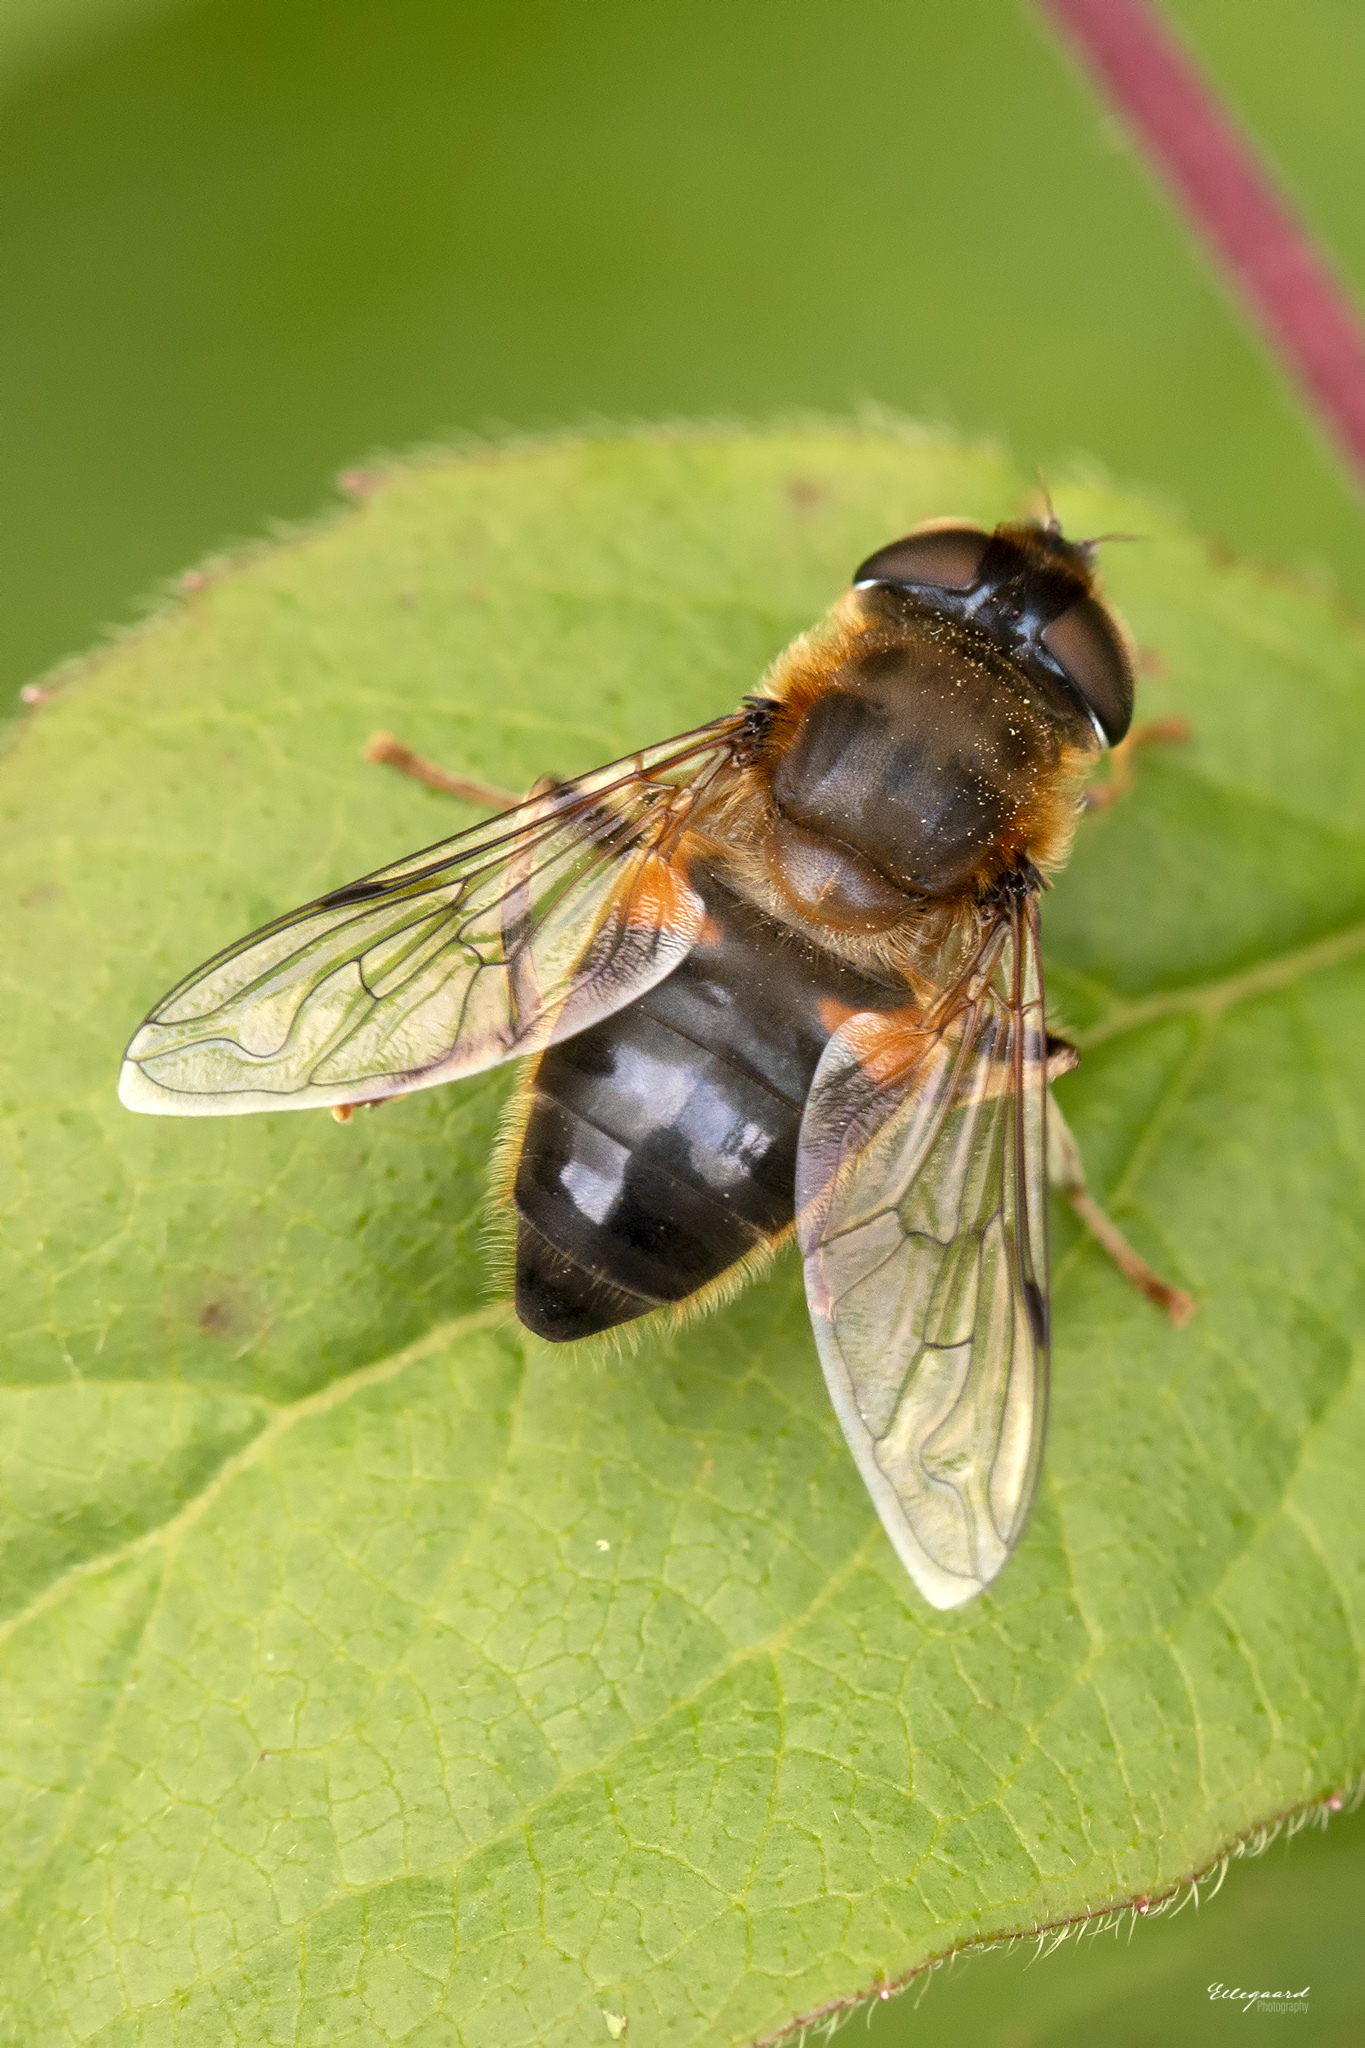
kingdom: Animalia
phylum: Arthropoda
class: Insecta
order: Diptera
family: Syrphidae
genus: Eristalis
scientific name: Eristalis pertinax
